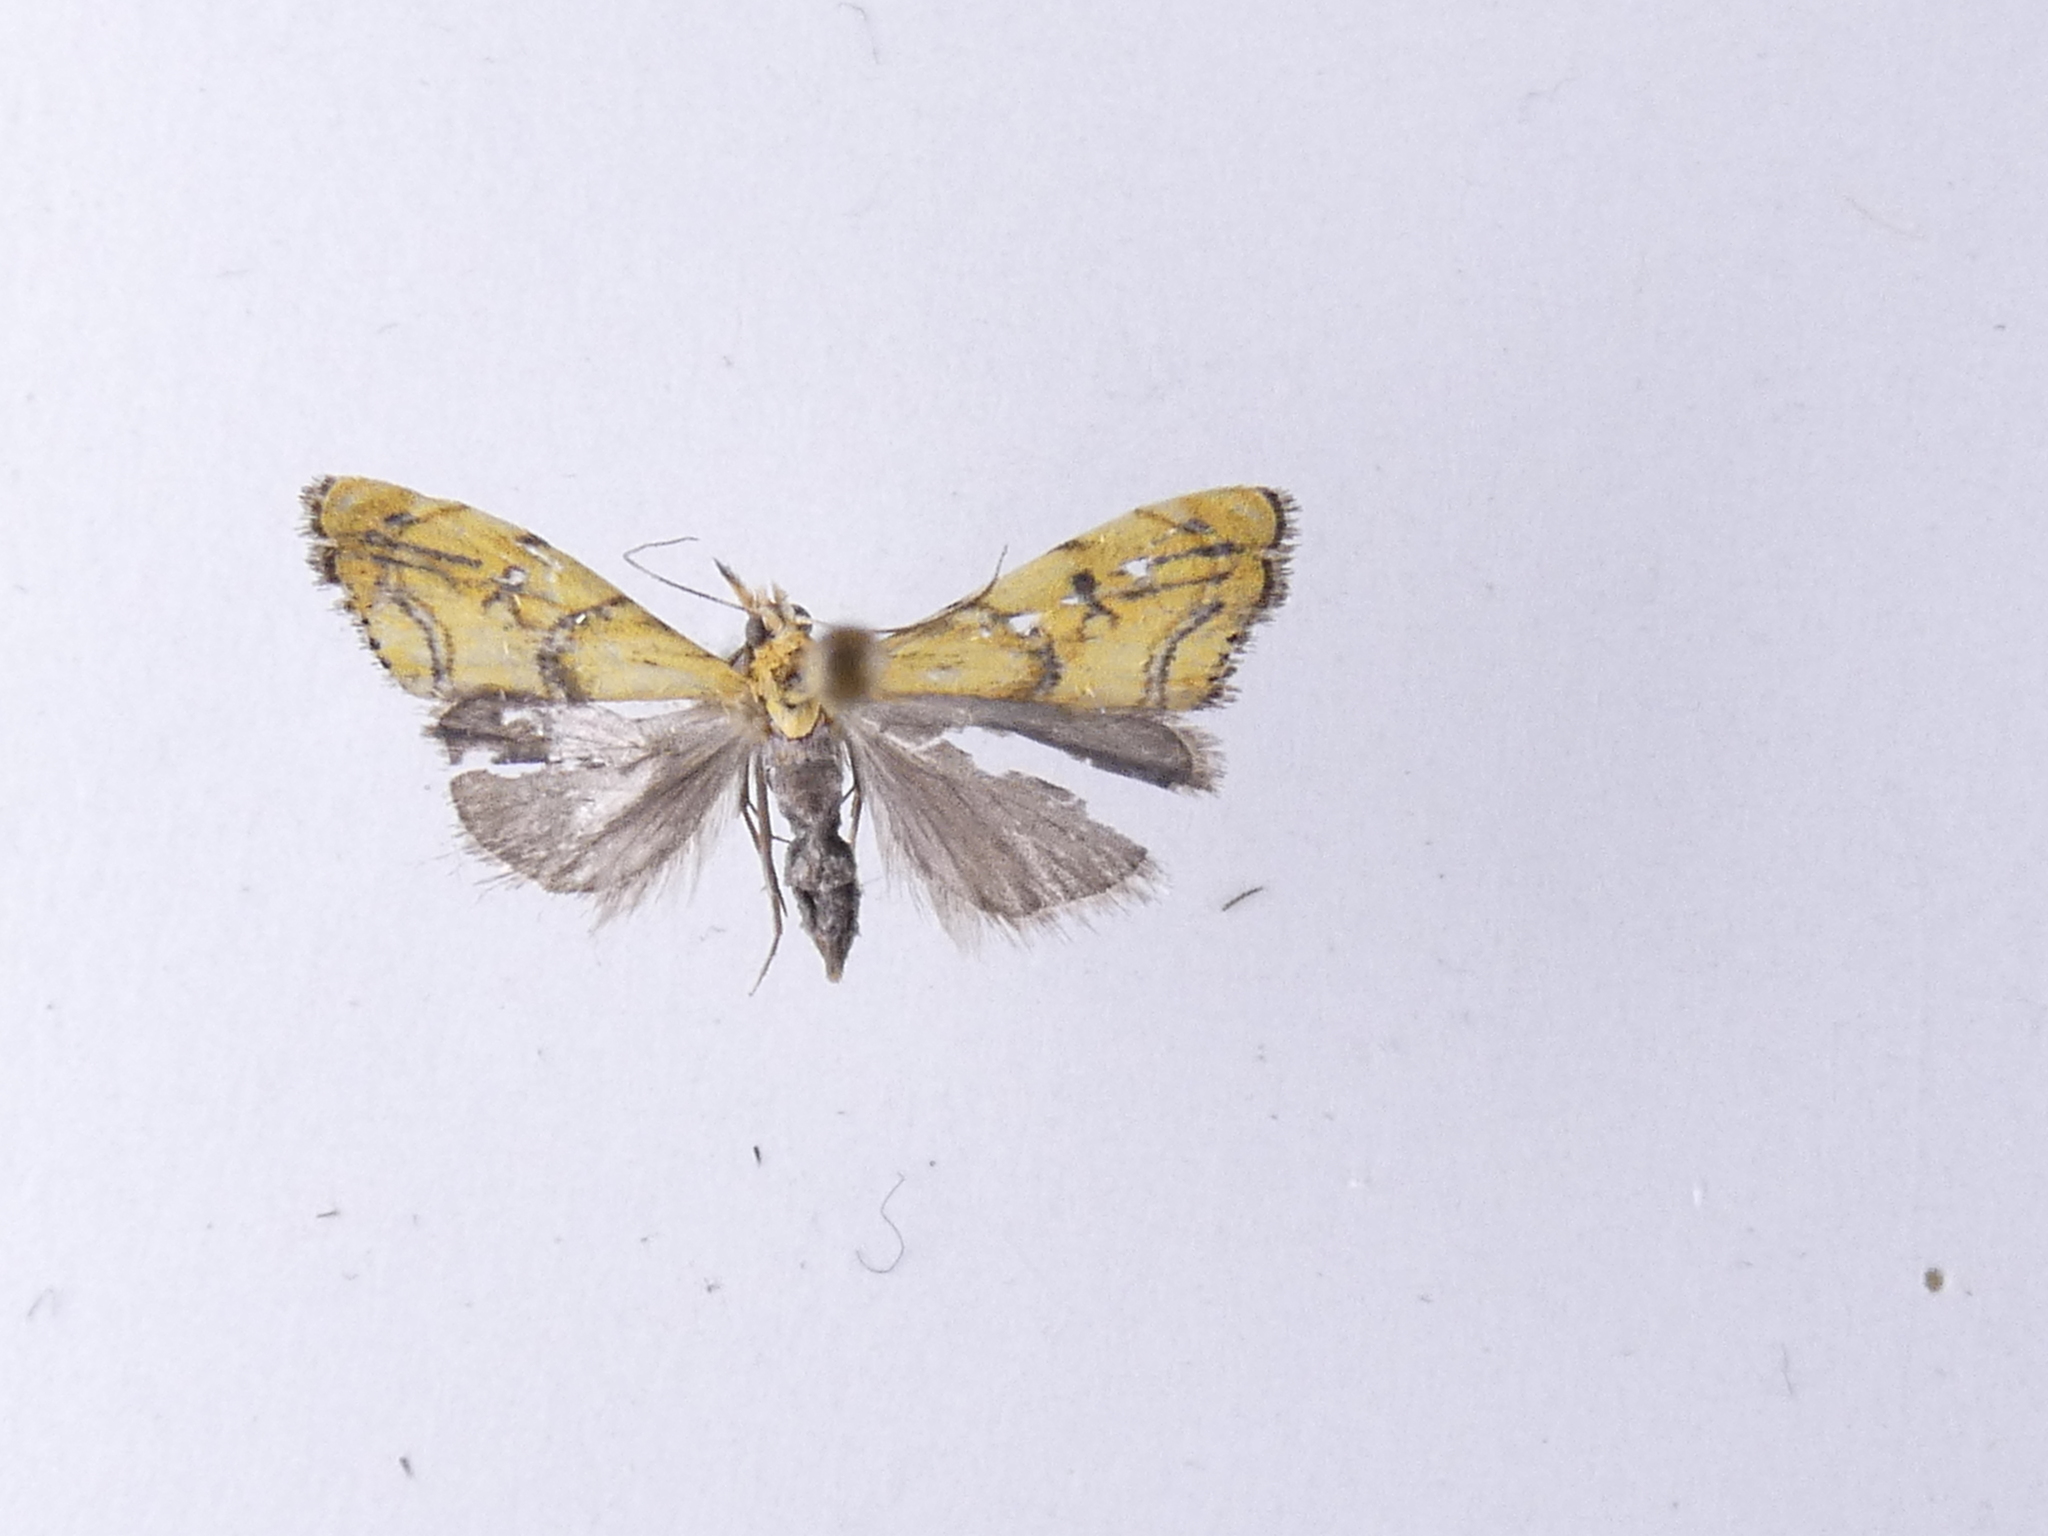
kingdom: Animalia
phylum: Arthropoda
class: Insecta
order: Lepidoptera
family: Crambidae
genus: Glaucocharis
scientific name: Glaucocharis auriscriptella
